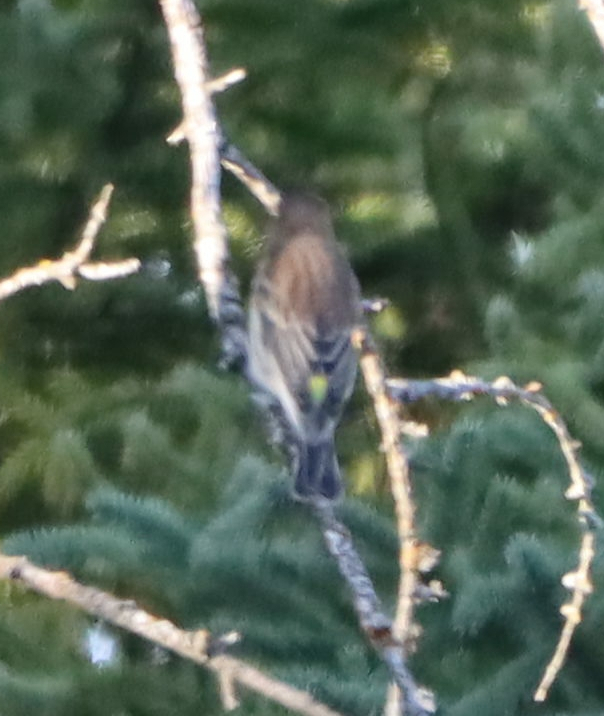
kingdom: Animalia
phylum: Chordata
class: Aves
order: Passeriformes
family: Parulidae
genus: Setophaga
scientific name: Setophaga coronata
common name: Myrtle warbler
